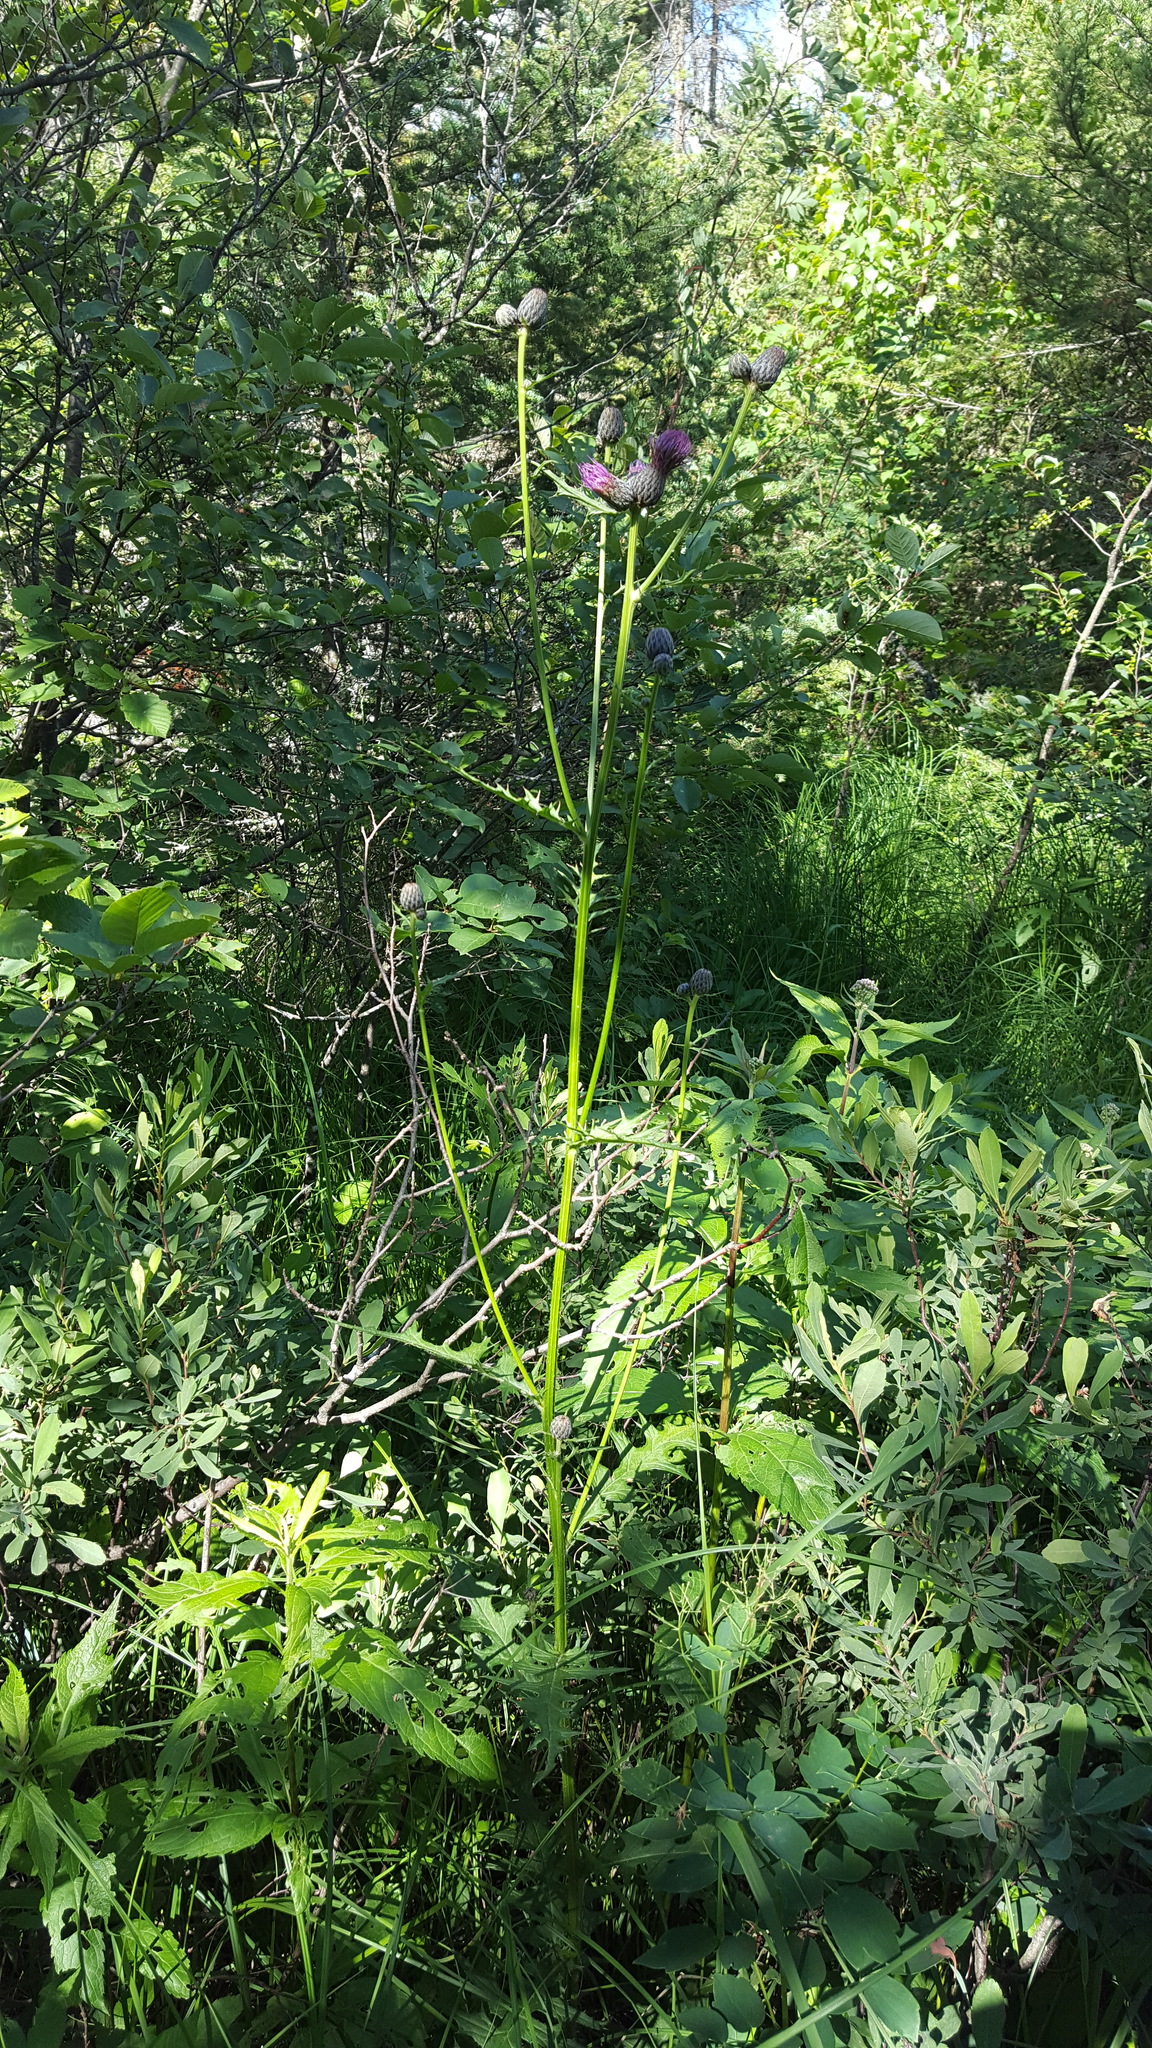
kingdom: Plantae
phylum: Tracheophyta
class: Magnoliopsida
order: Asterales
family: Asteraceae
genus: Cirsium
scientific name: Cirsium muticum
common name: Dunce-nettle
